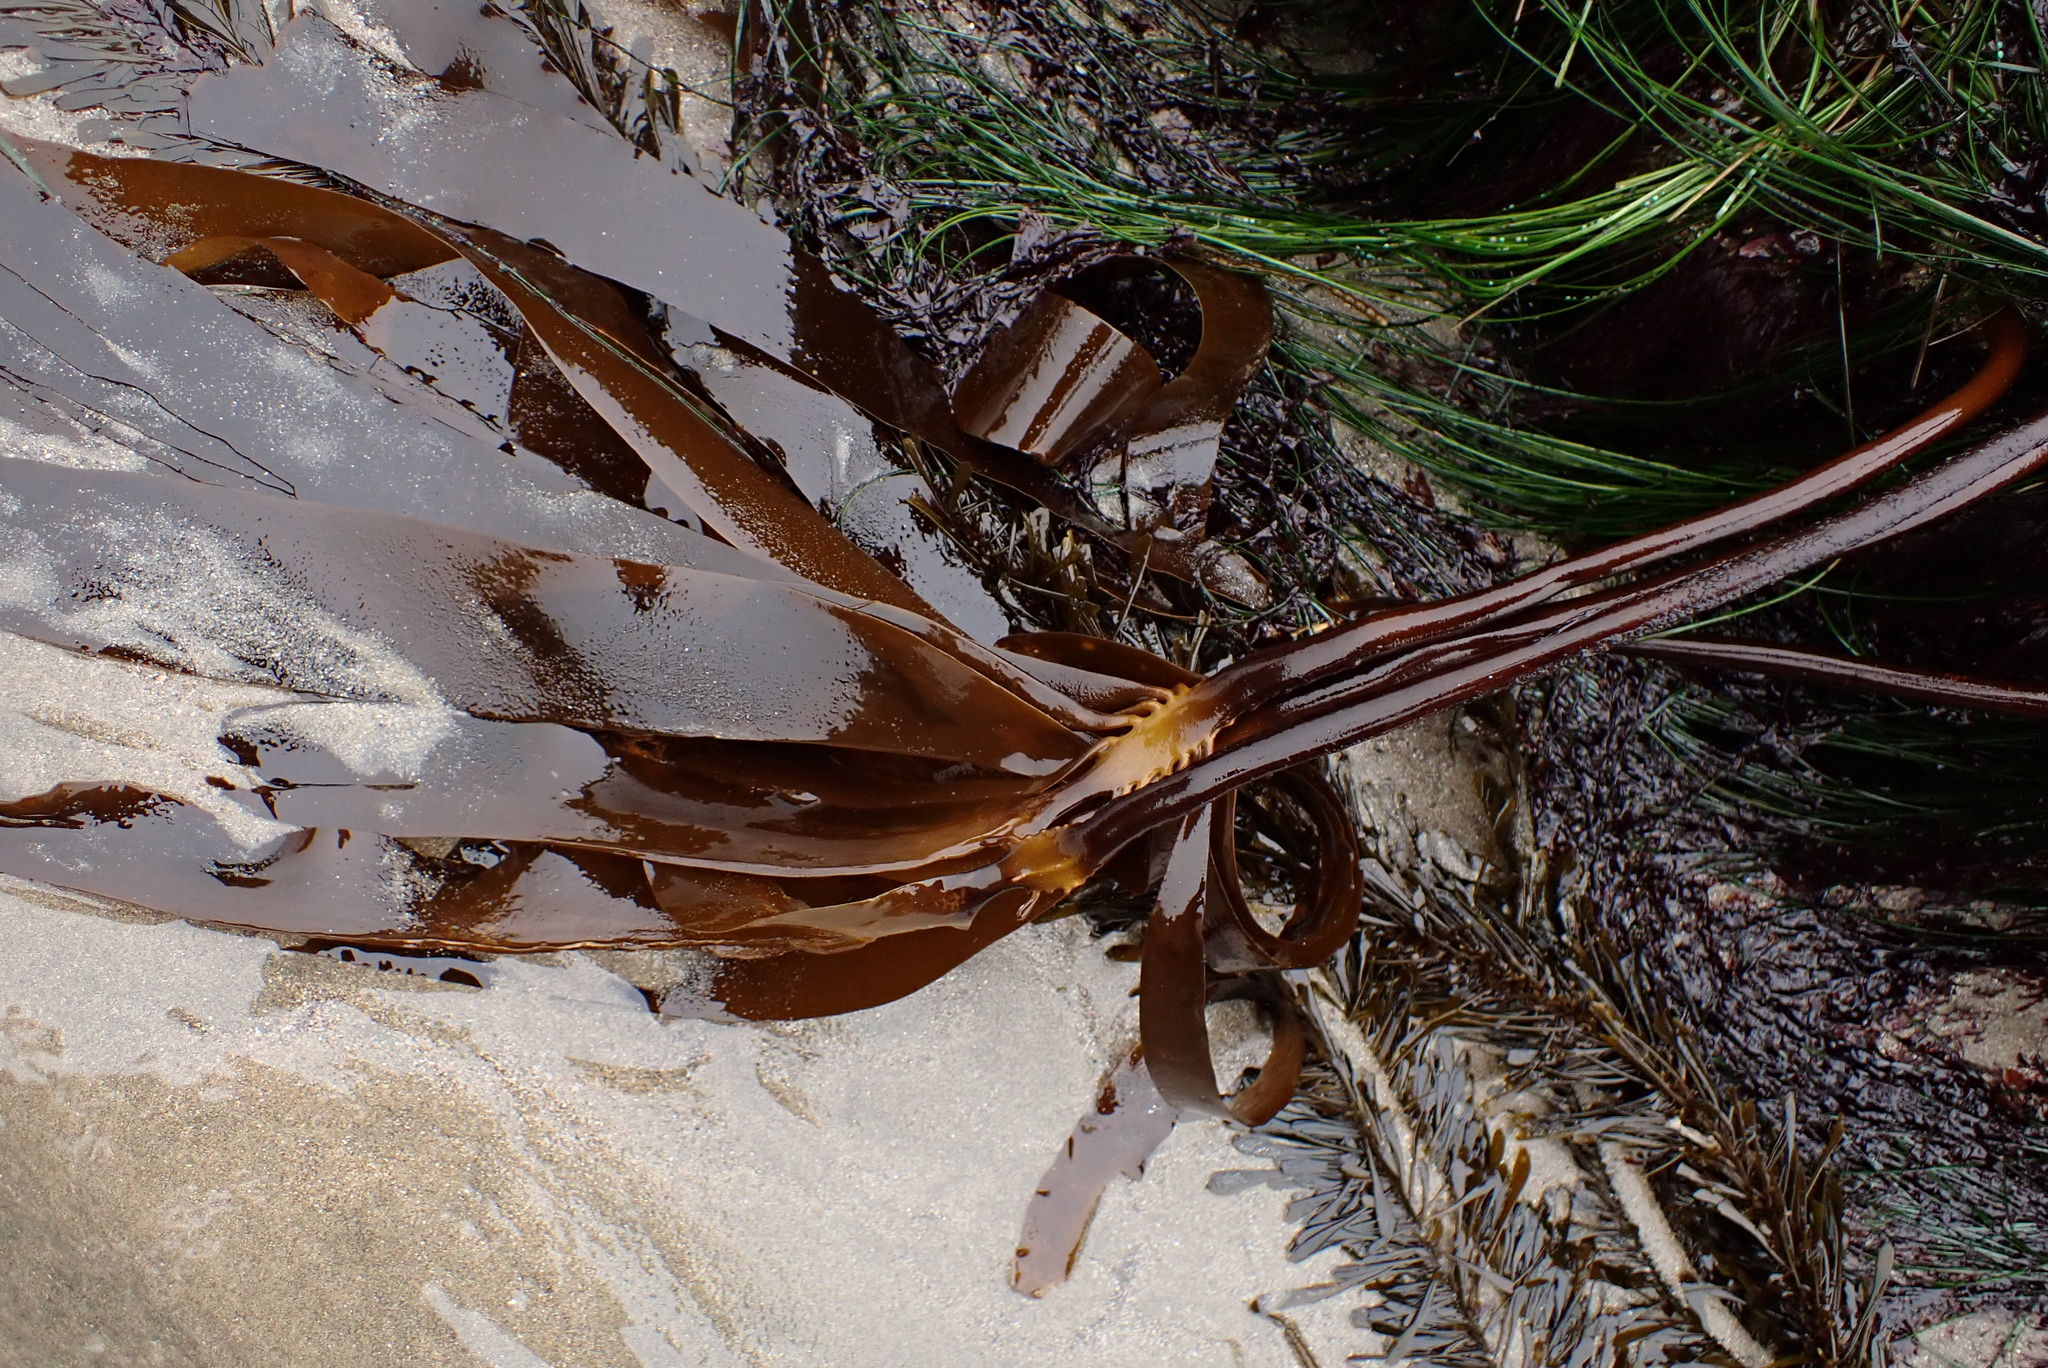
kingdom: Chromista
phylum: Ochrophyta
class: Phaeophyceae
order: Laminariales
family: Alariaceae
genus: Pterygophora
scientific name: Pterygophora californica
